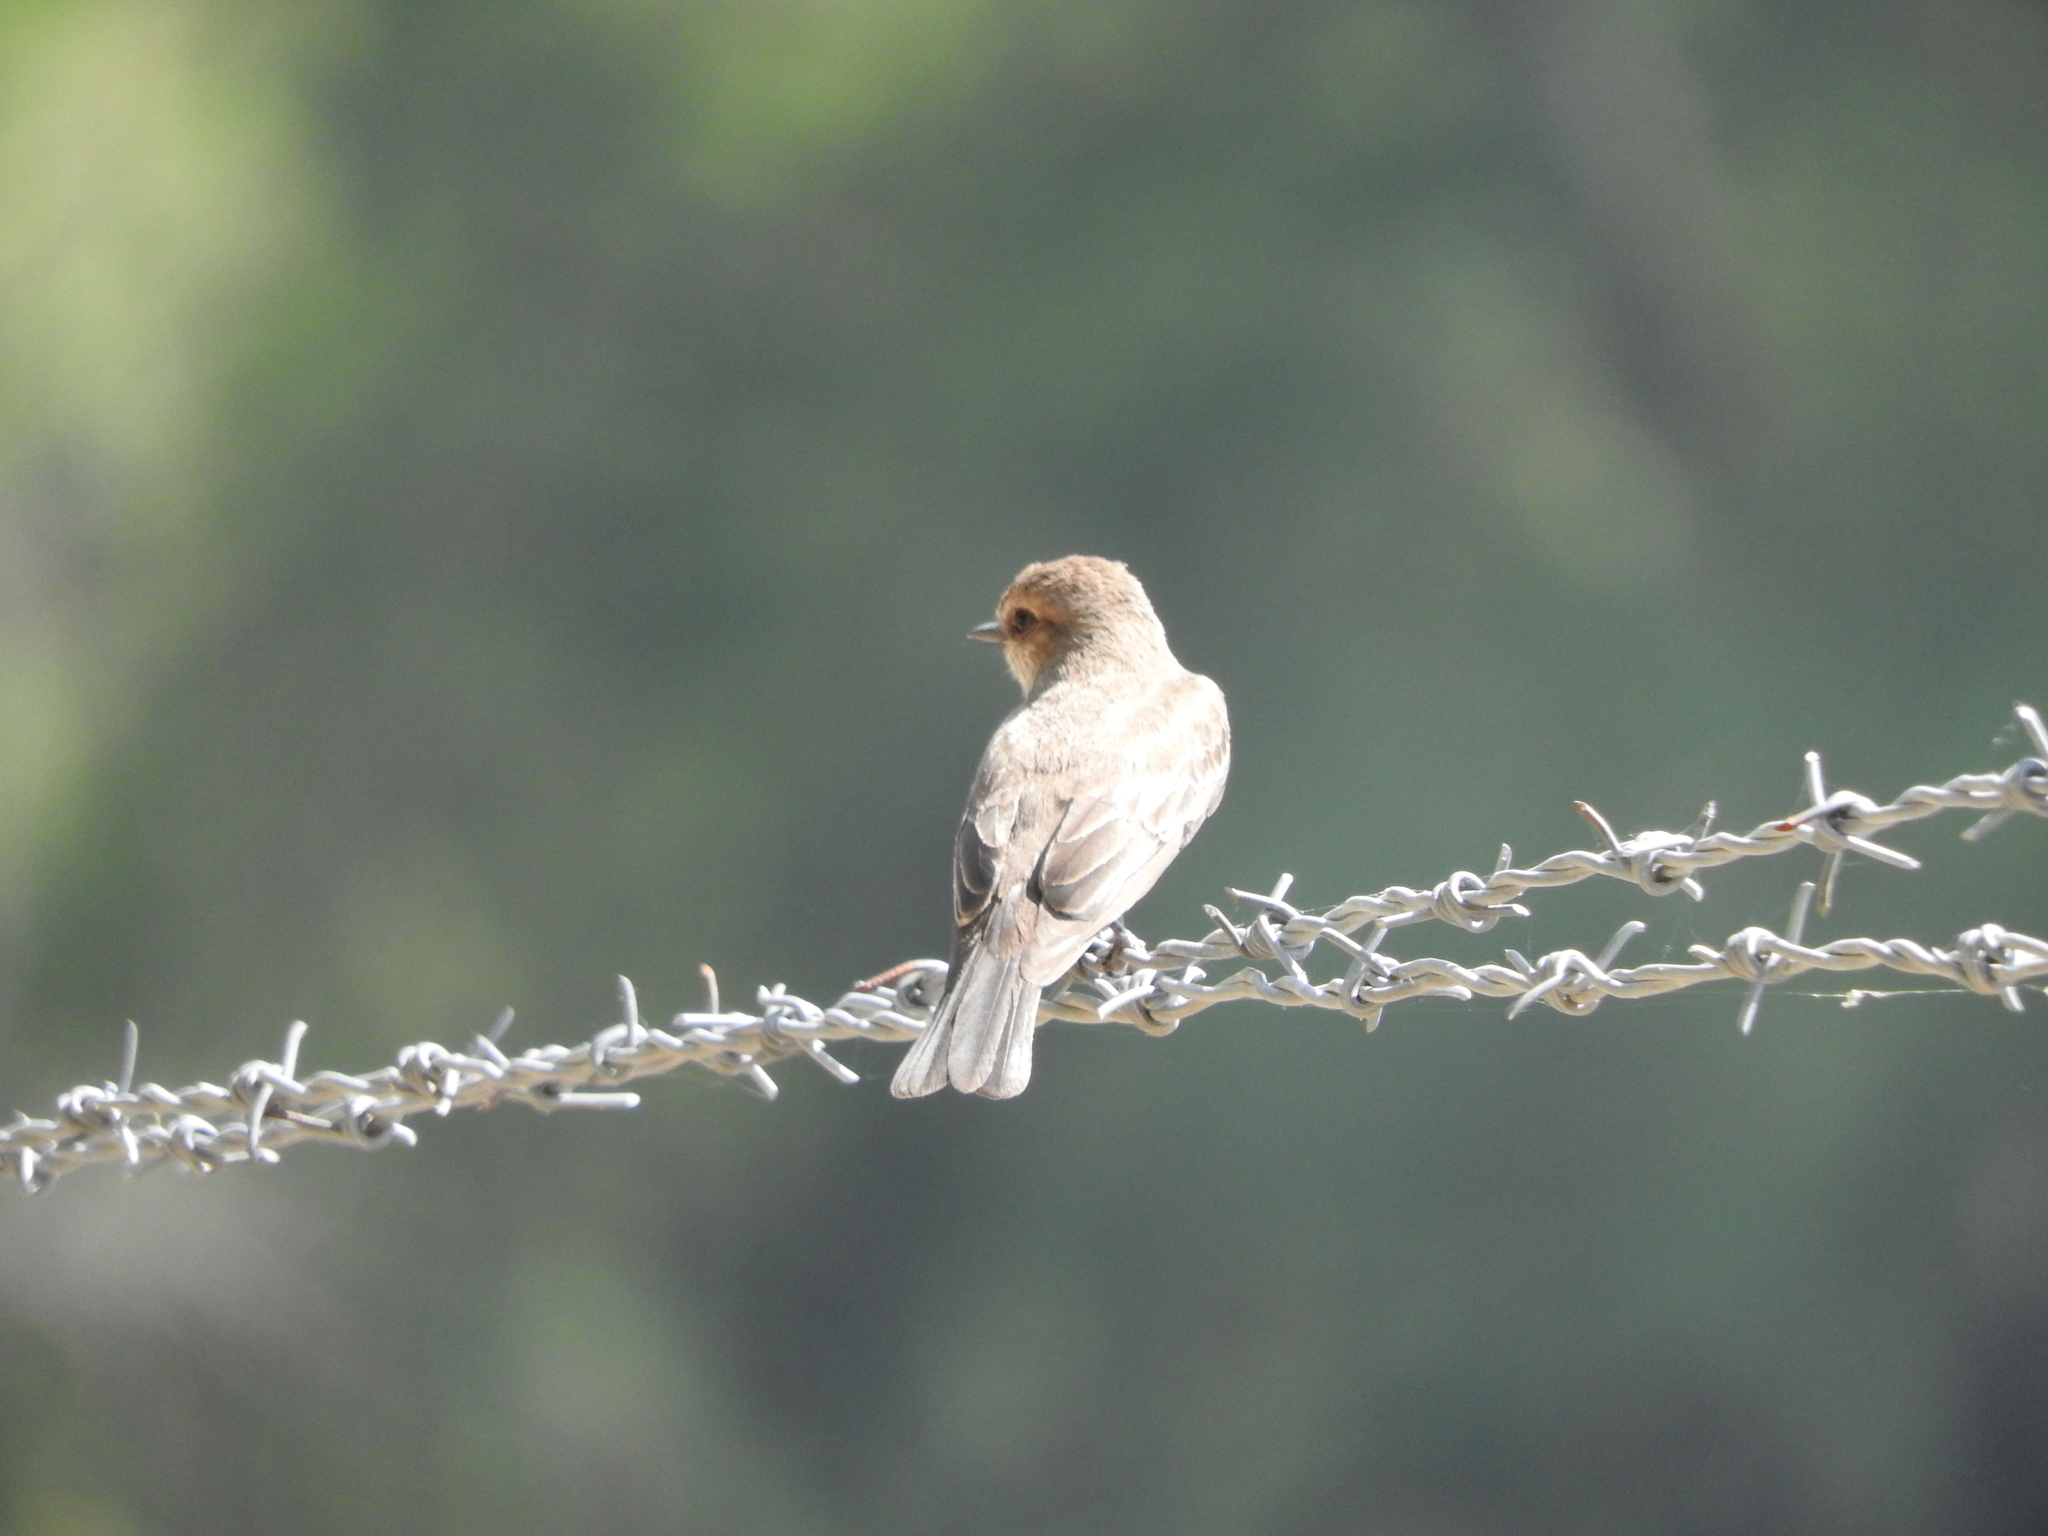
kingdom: Animalia
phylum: Chordata
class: Aves
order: Passeriformes
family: Tyrannidae
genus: Pyrocephalus
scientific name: Pyrocephalus rubinus
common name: Vermilion flycatcher
